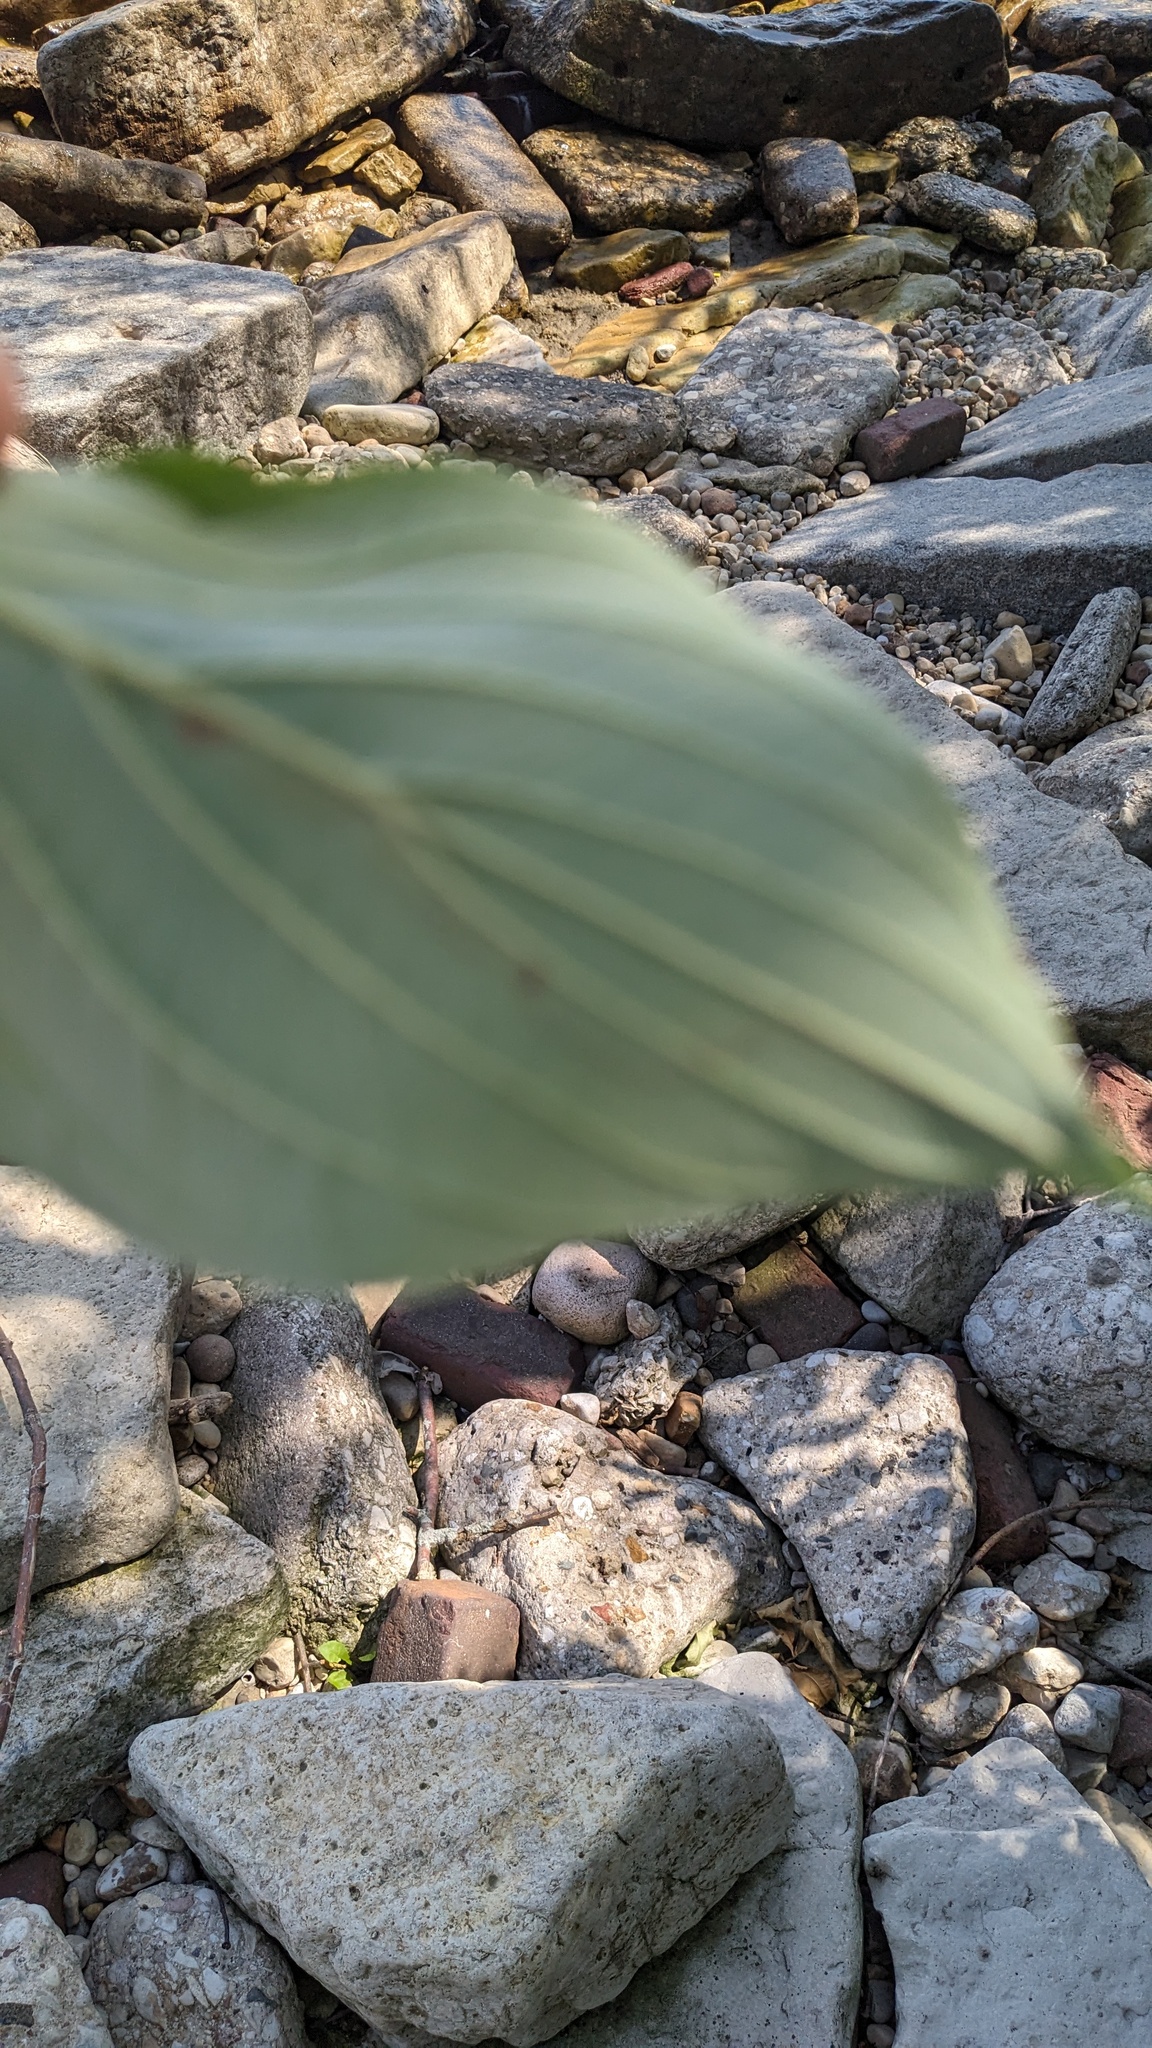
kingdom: Animalia
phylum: Arthropoda
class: Insecta
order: Diptera
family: Agromyzidae
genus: Phytomyza
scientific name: Phytomyza agromyzina
